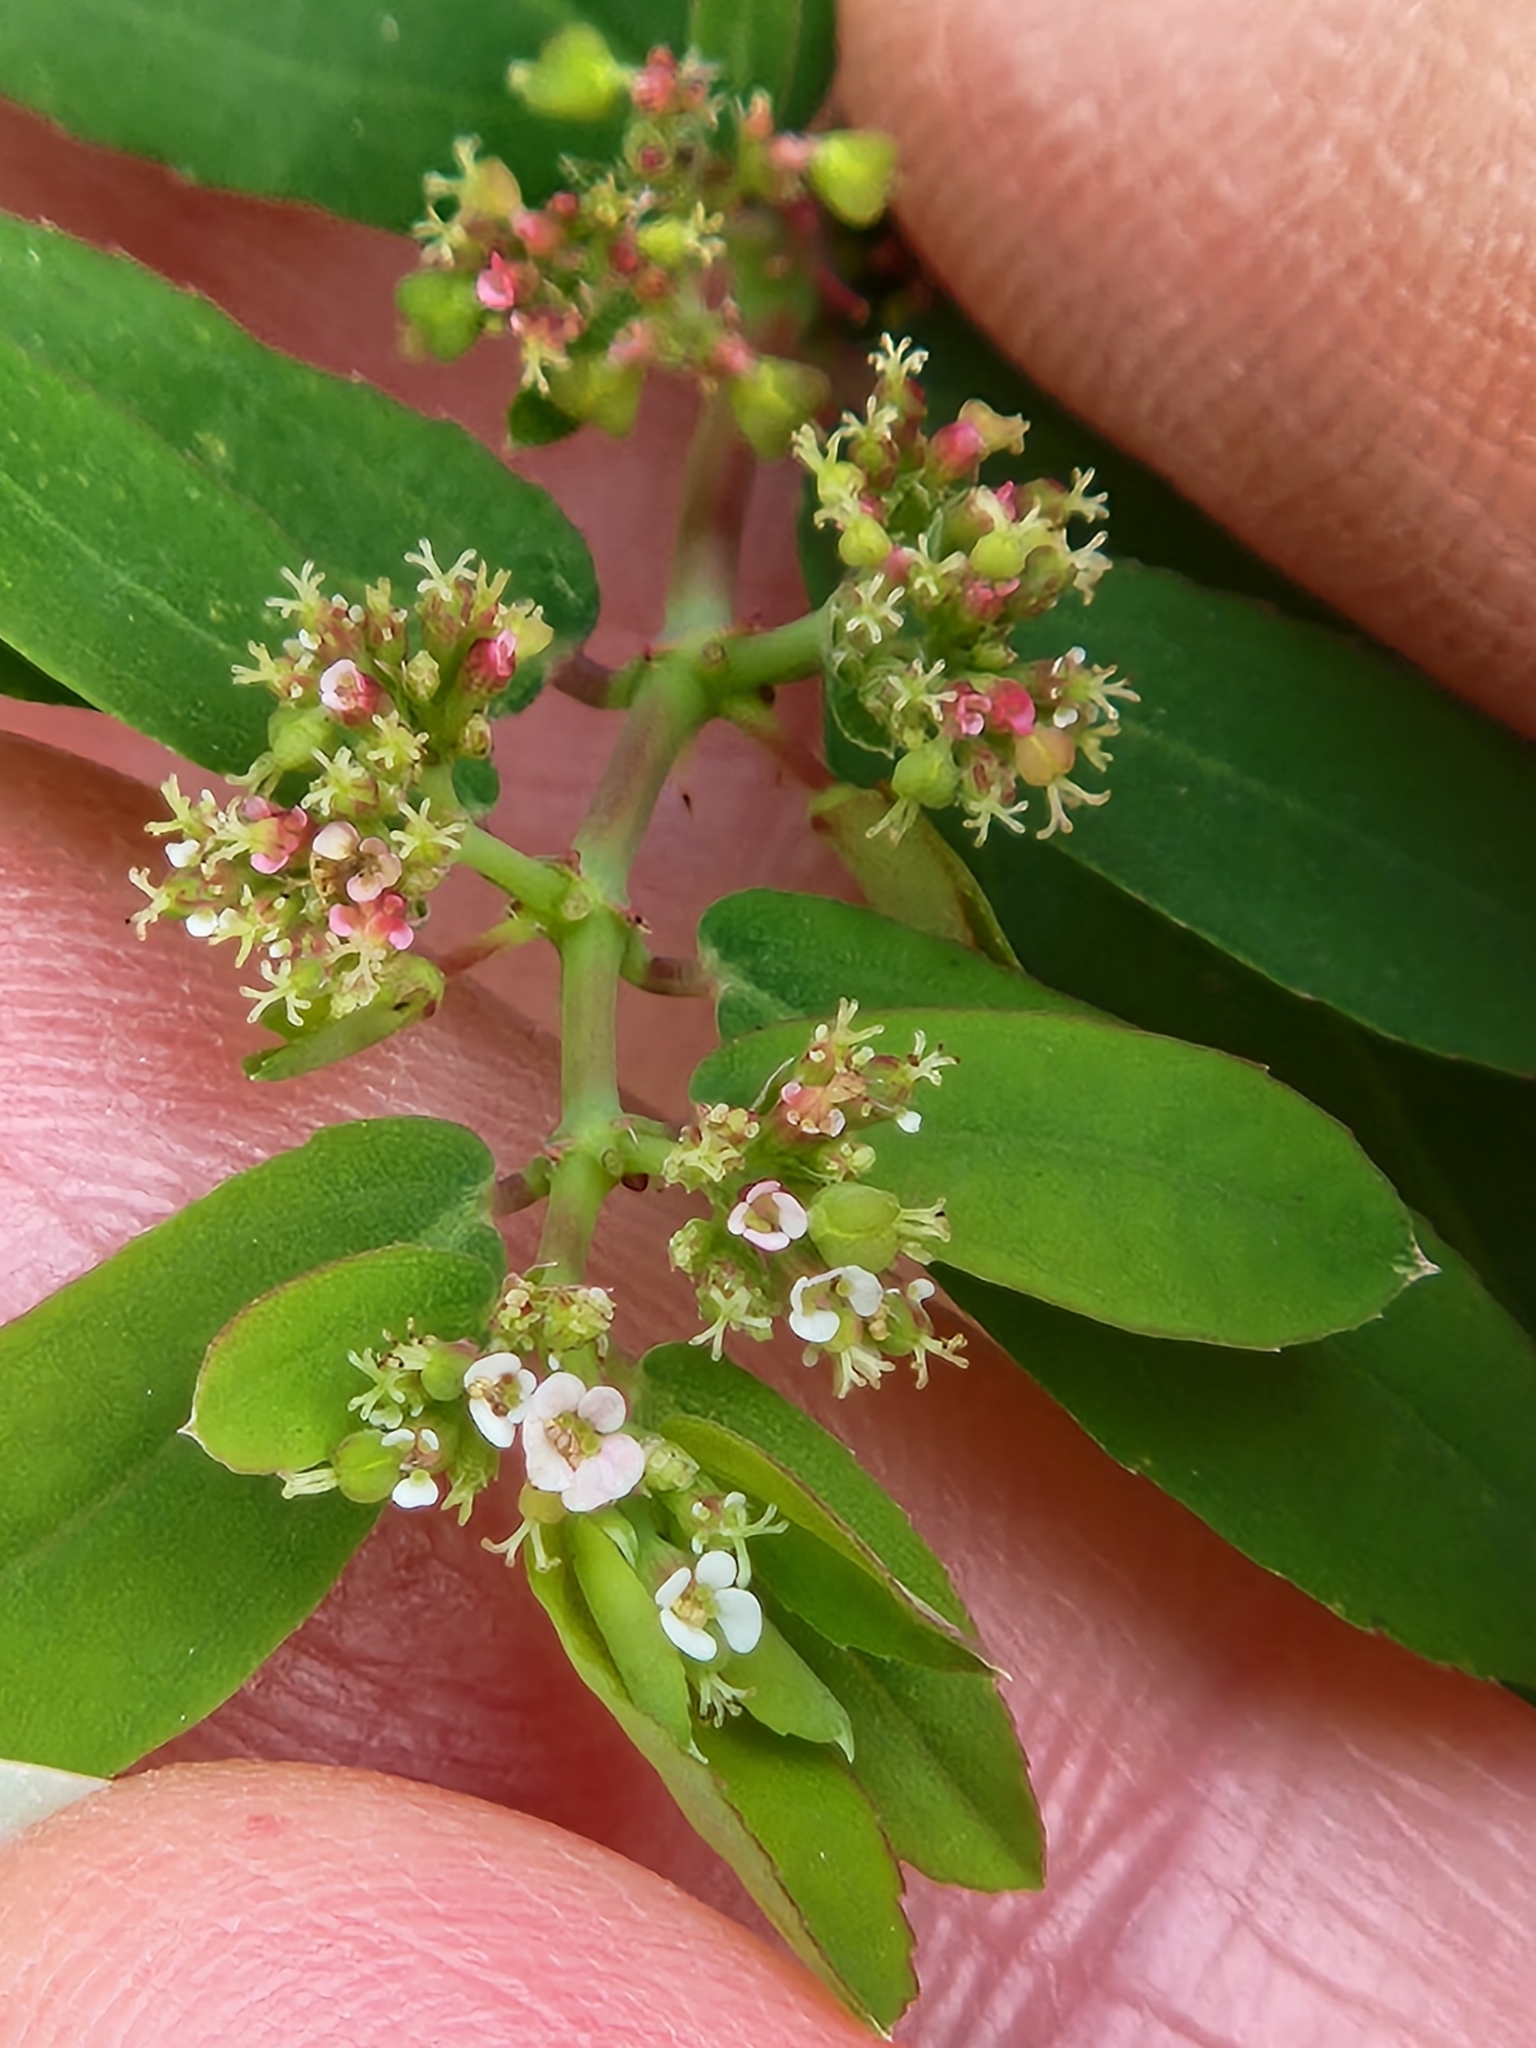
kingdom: Plantae
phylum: Tracheophyta
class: Magnoliopsida
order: Malpighiales
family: Euphorbiaceae
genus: Euphorbia
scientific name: Euphorbia hypericifolia
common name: Graceful sandmat
